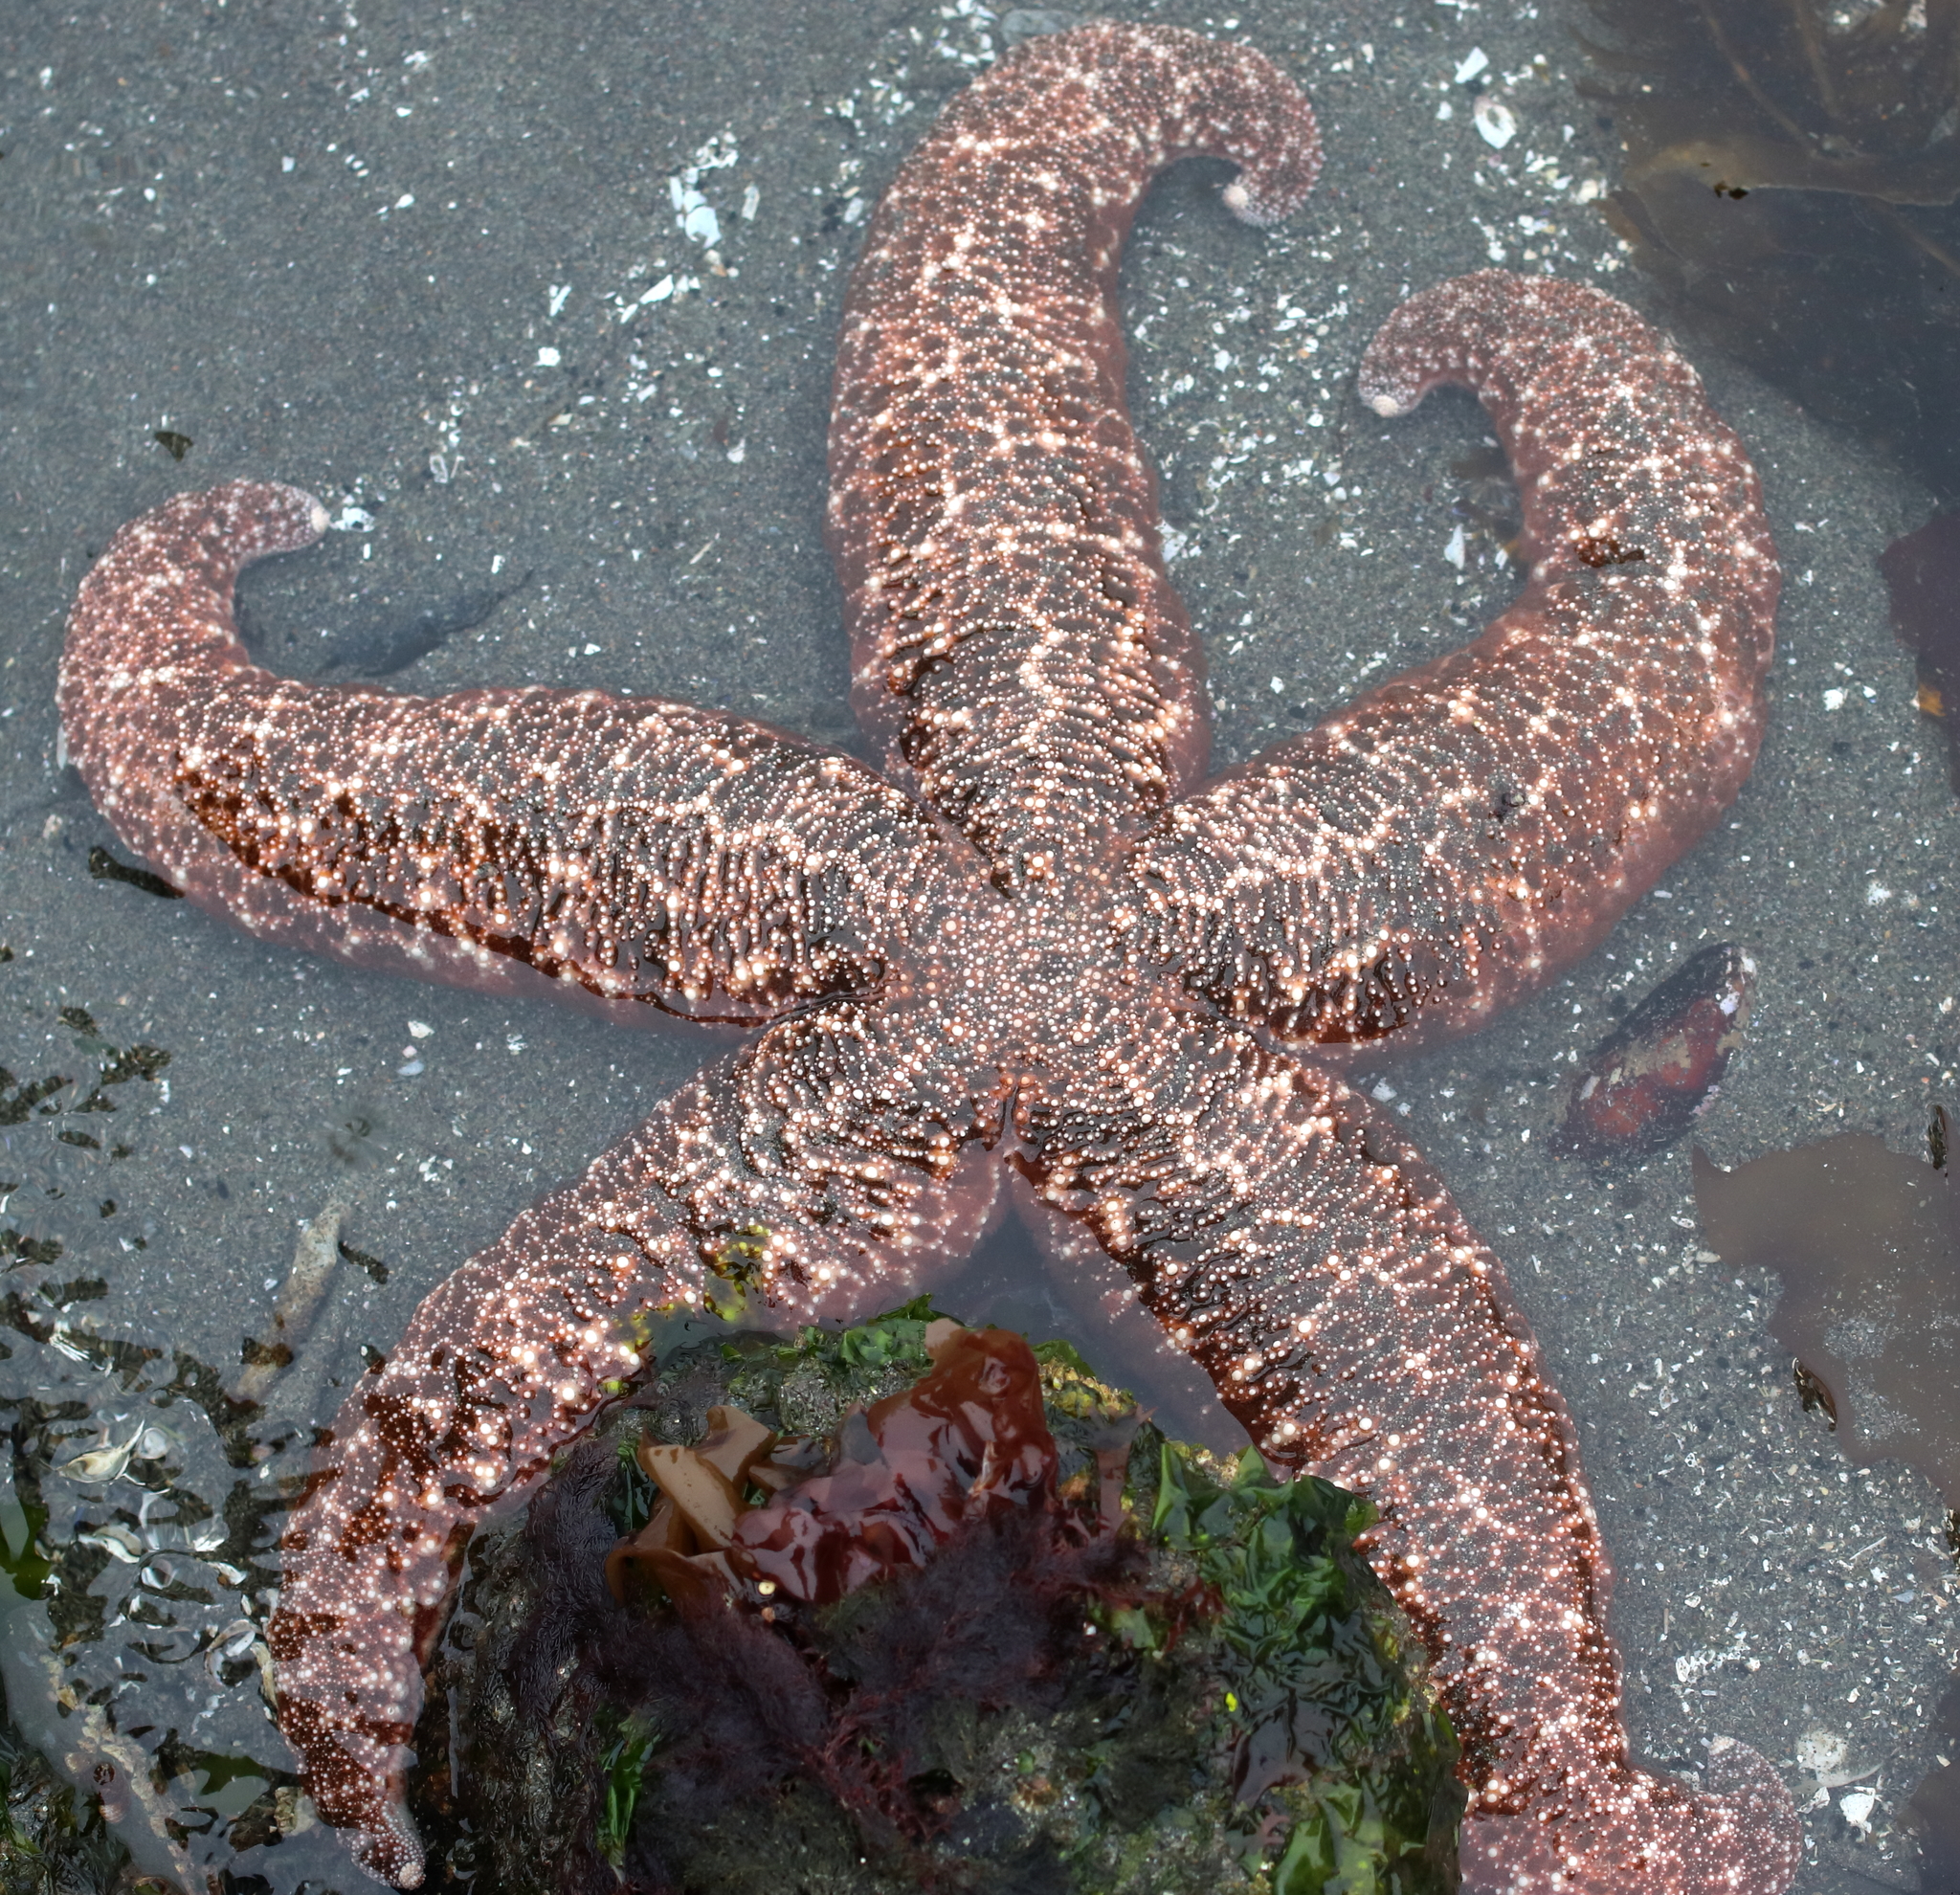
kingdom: Animalia
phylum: Echinodermata
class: Asteroidea
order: Forcipulatida
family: Asteriidae
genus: Evasterias
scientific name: Evasterias troschelii
